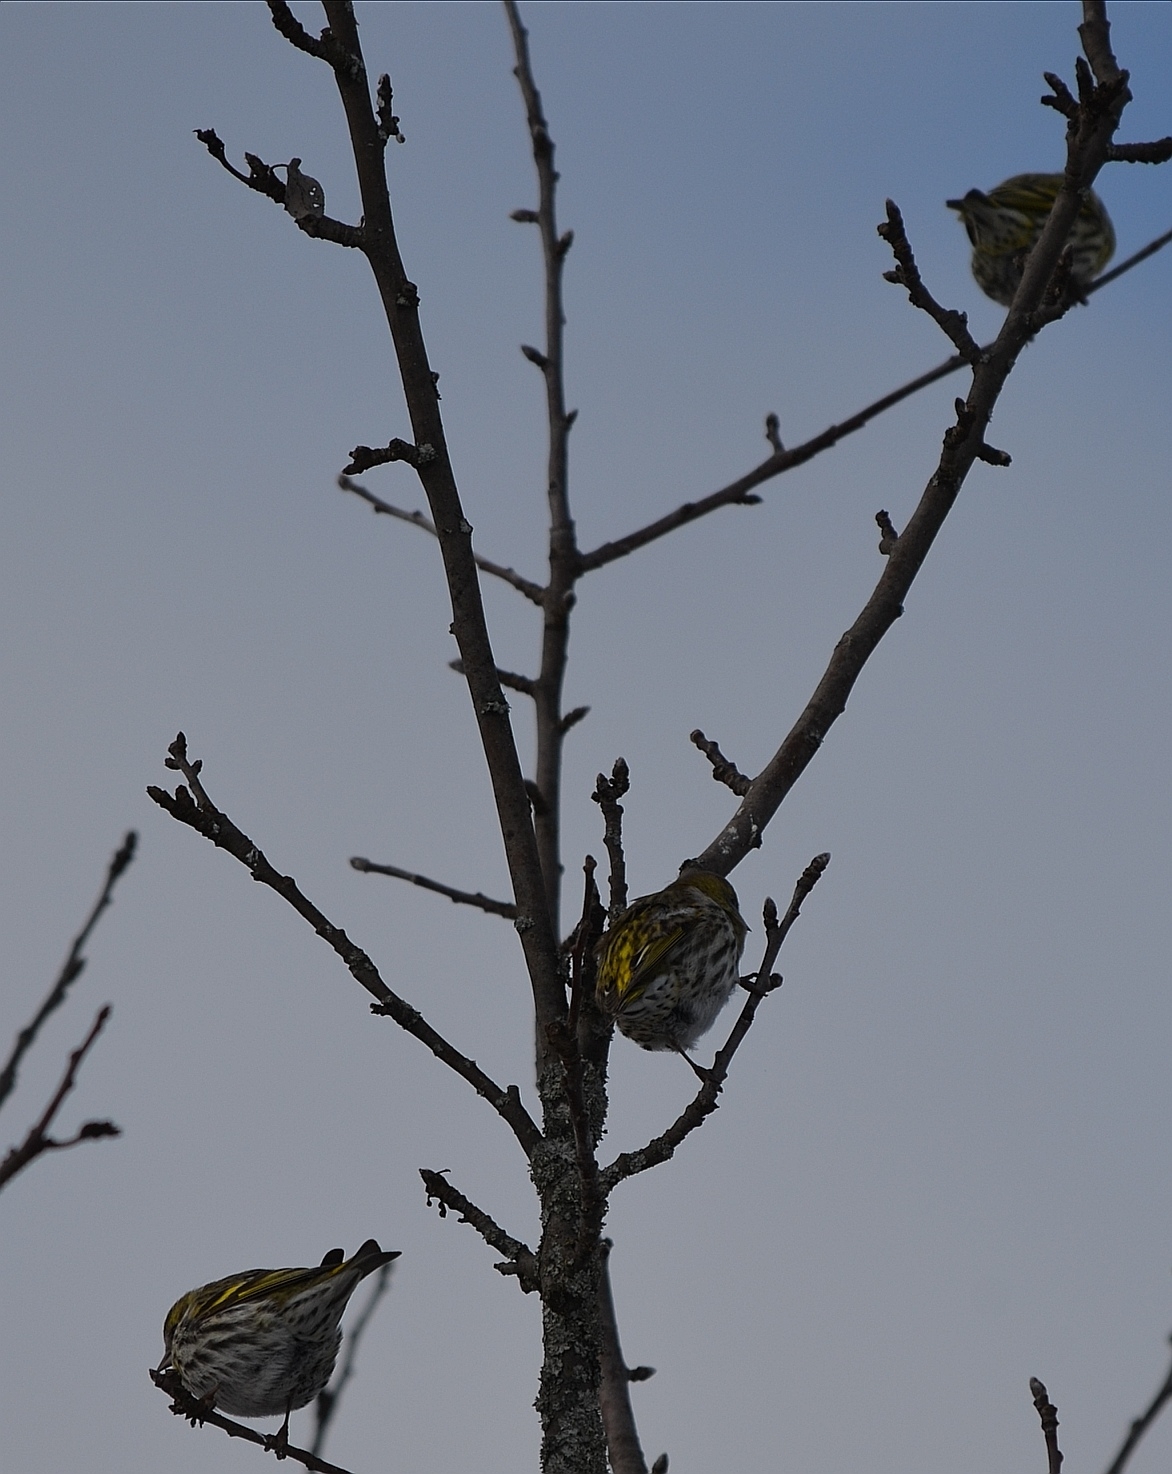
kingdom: Animalia
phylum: Chordata
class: Aves
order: Passeriformes
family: Fringillidae
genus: Spinus
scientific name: Spinus spinus
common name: Eurasian siskin
